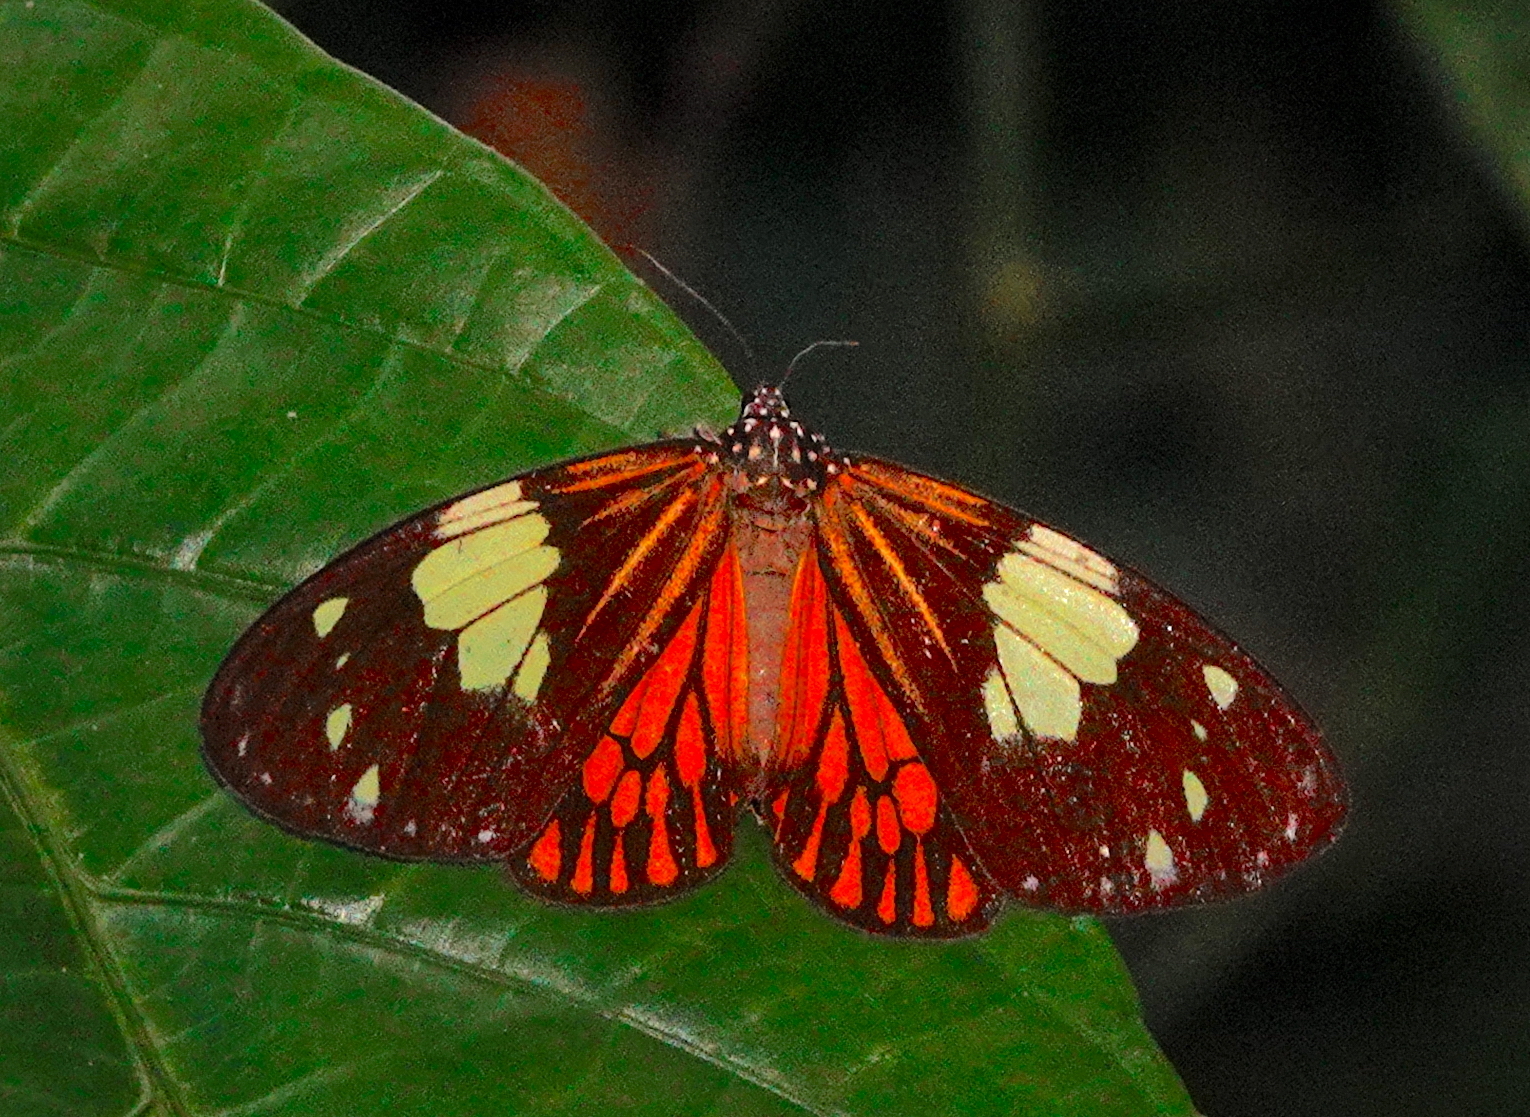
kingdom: Animalia
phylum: Arthropoda
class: Insecta
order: Lepidoptera
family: Erebidae
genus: Chetone
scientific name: Chetone ithrana
